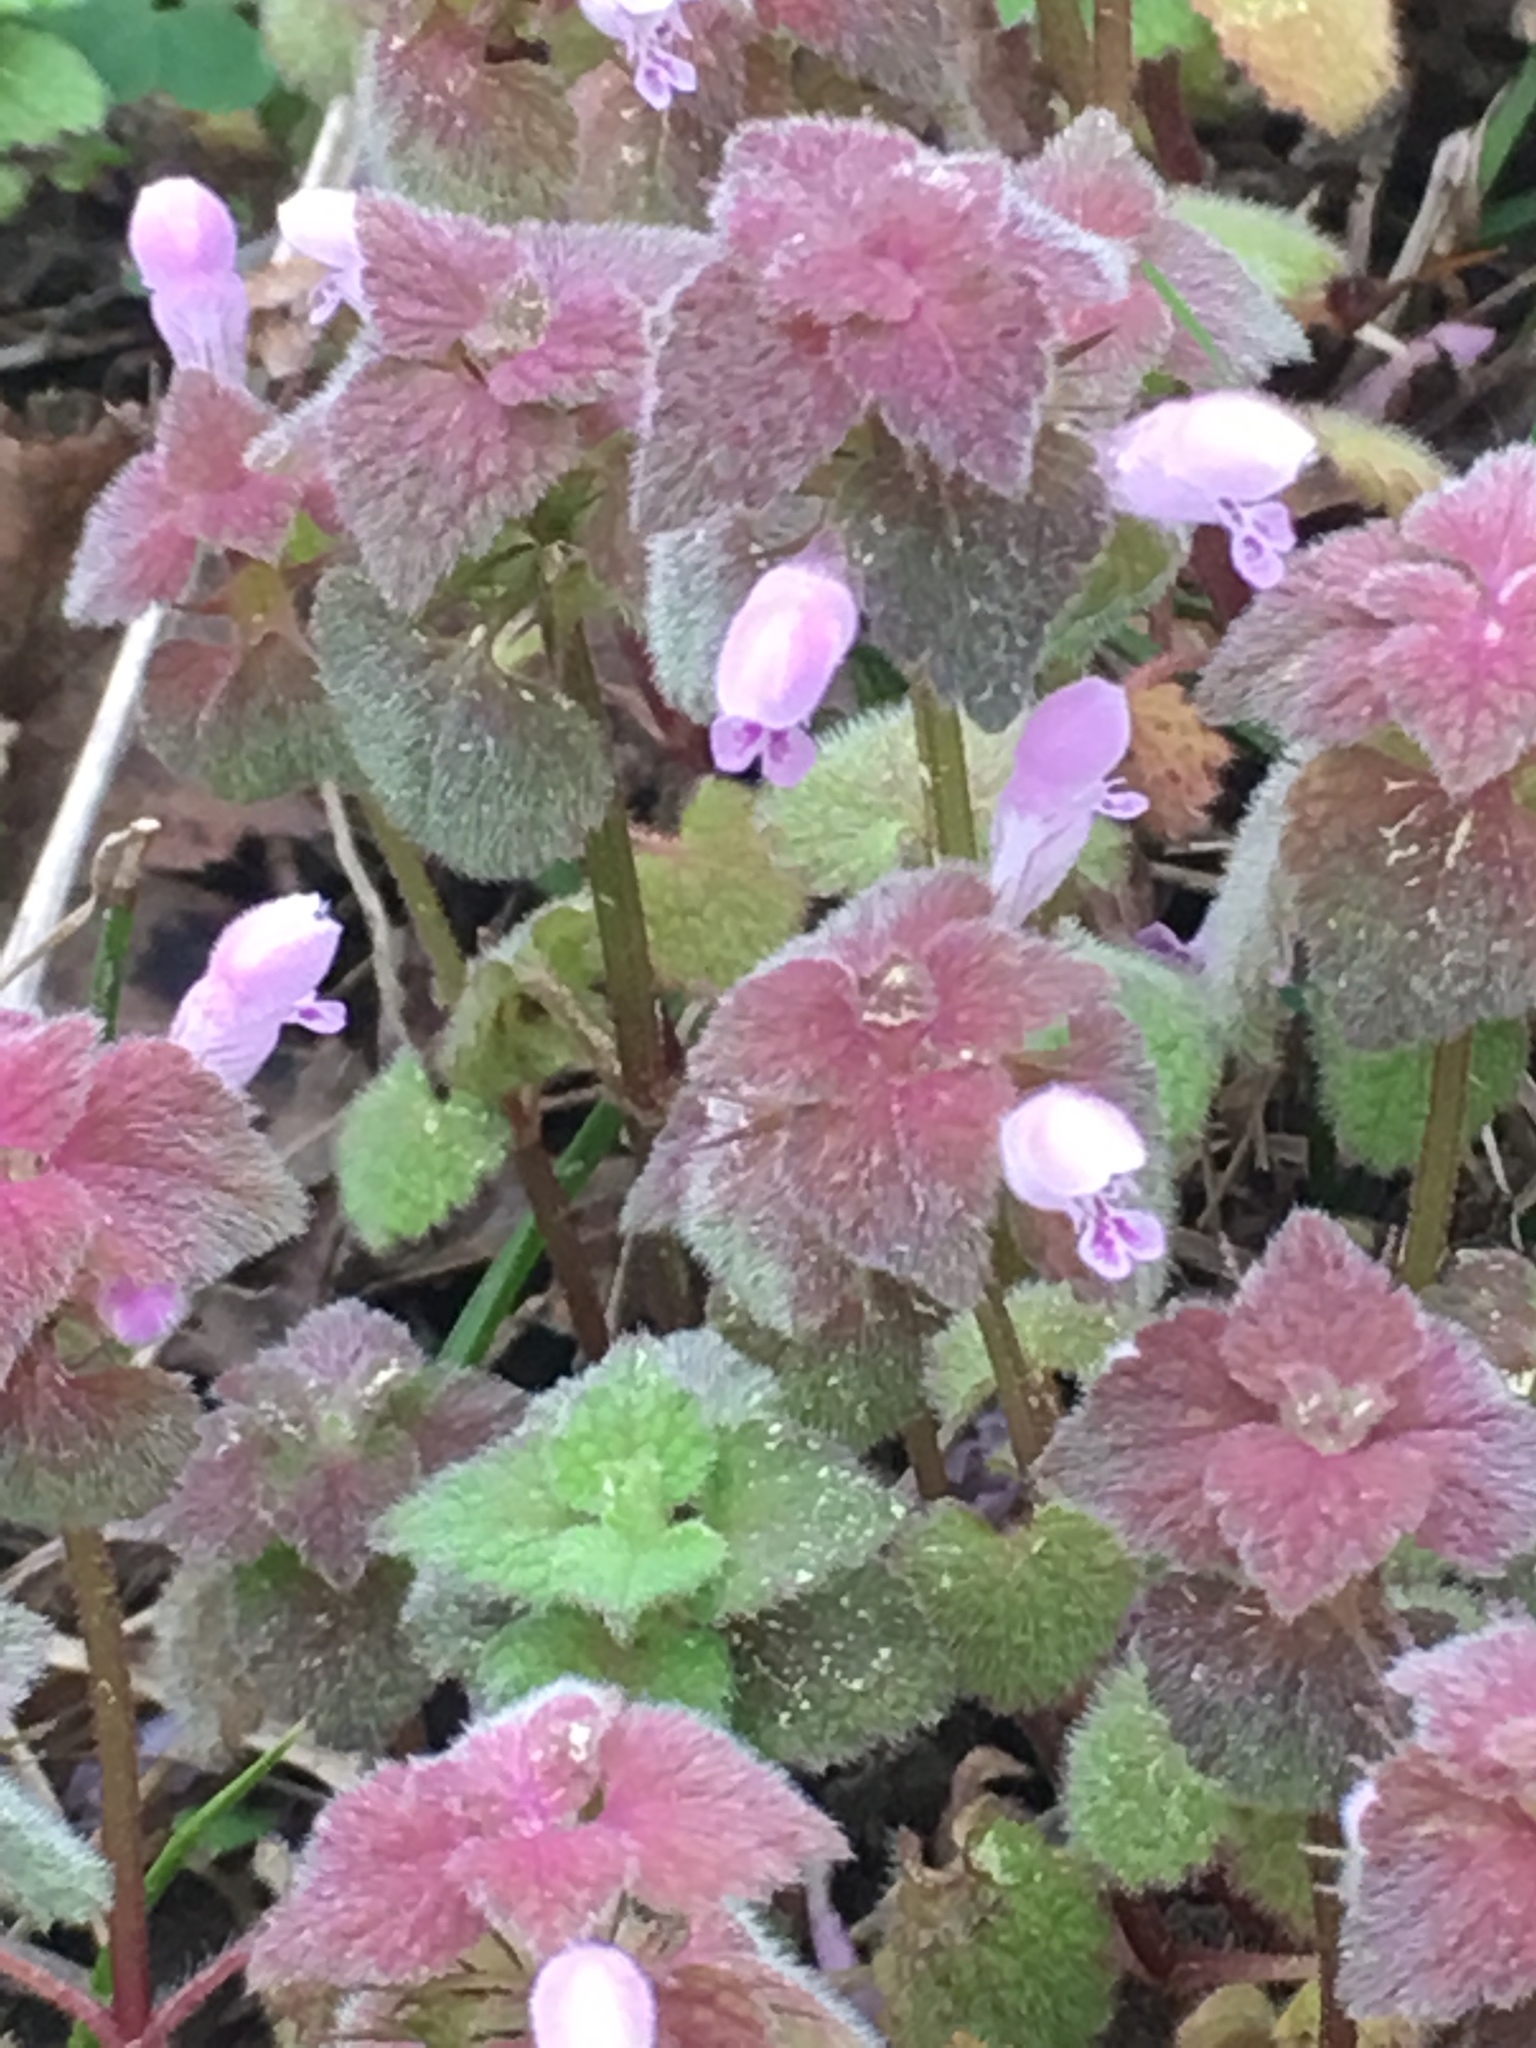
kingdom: Plantae
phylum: Tracheophyta
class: Magnoliopsida
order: Lamiales
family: Lamiaceae
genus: Lamium
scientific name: Lamium purpureum
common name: Red dead-nettle
